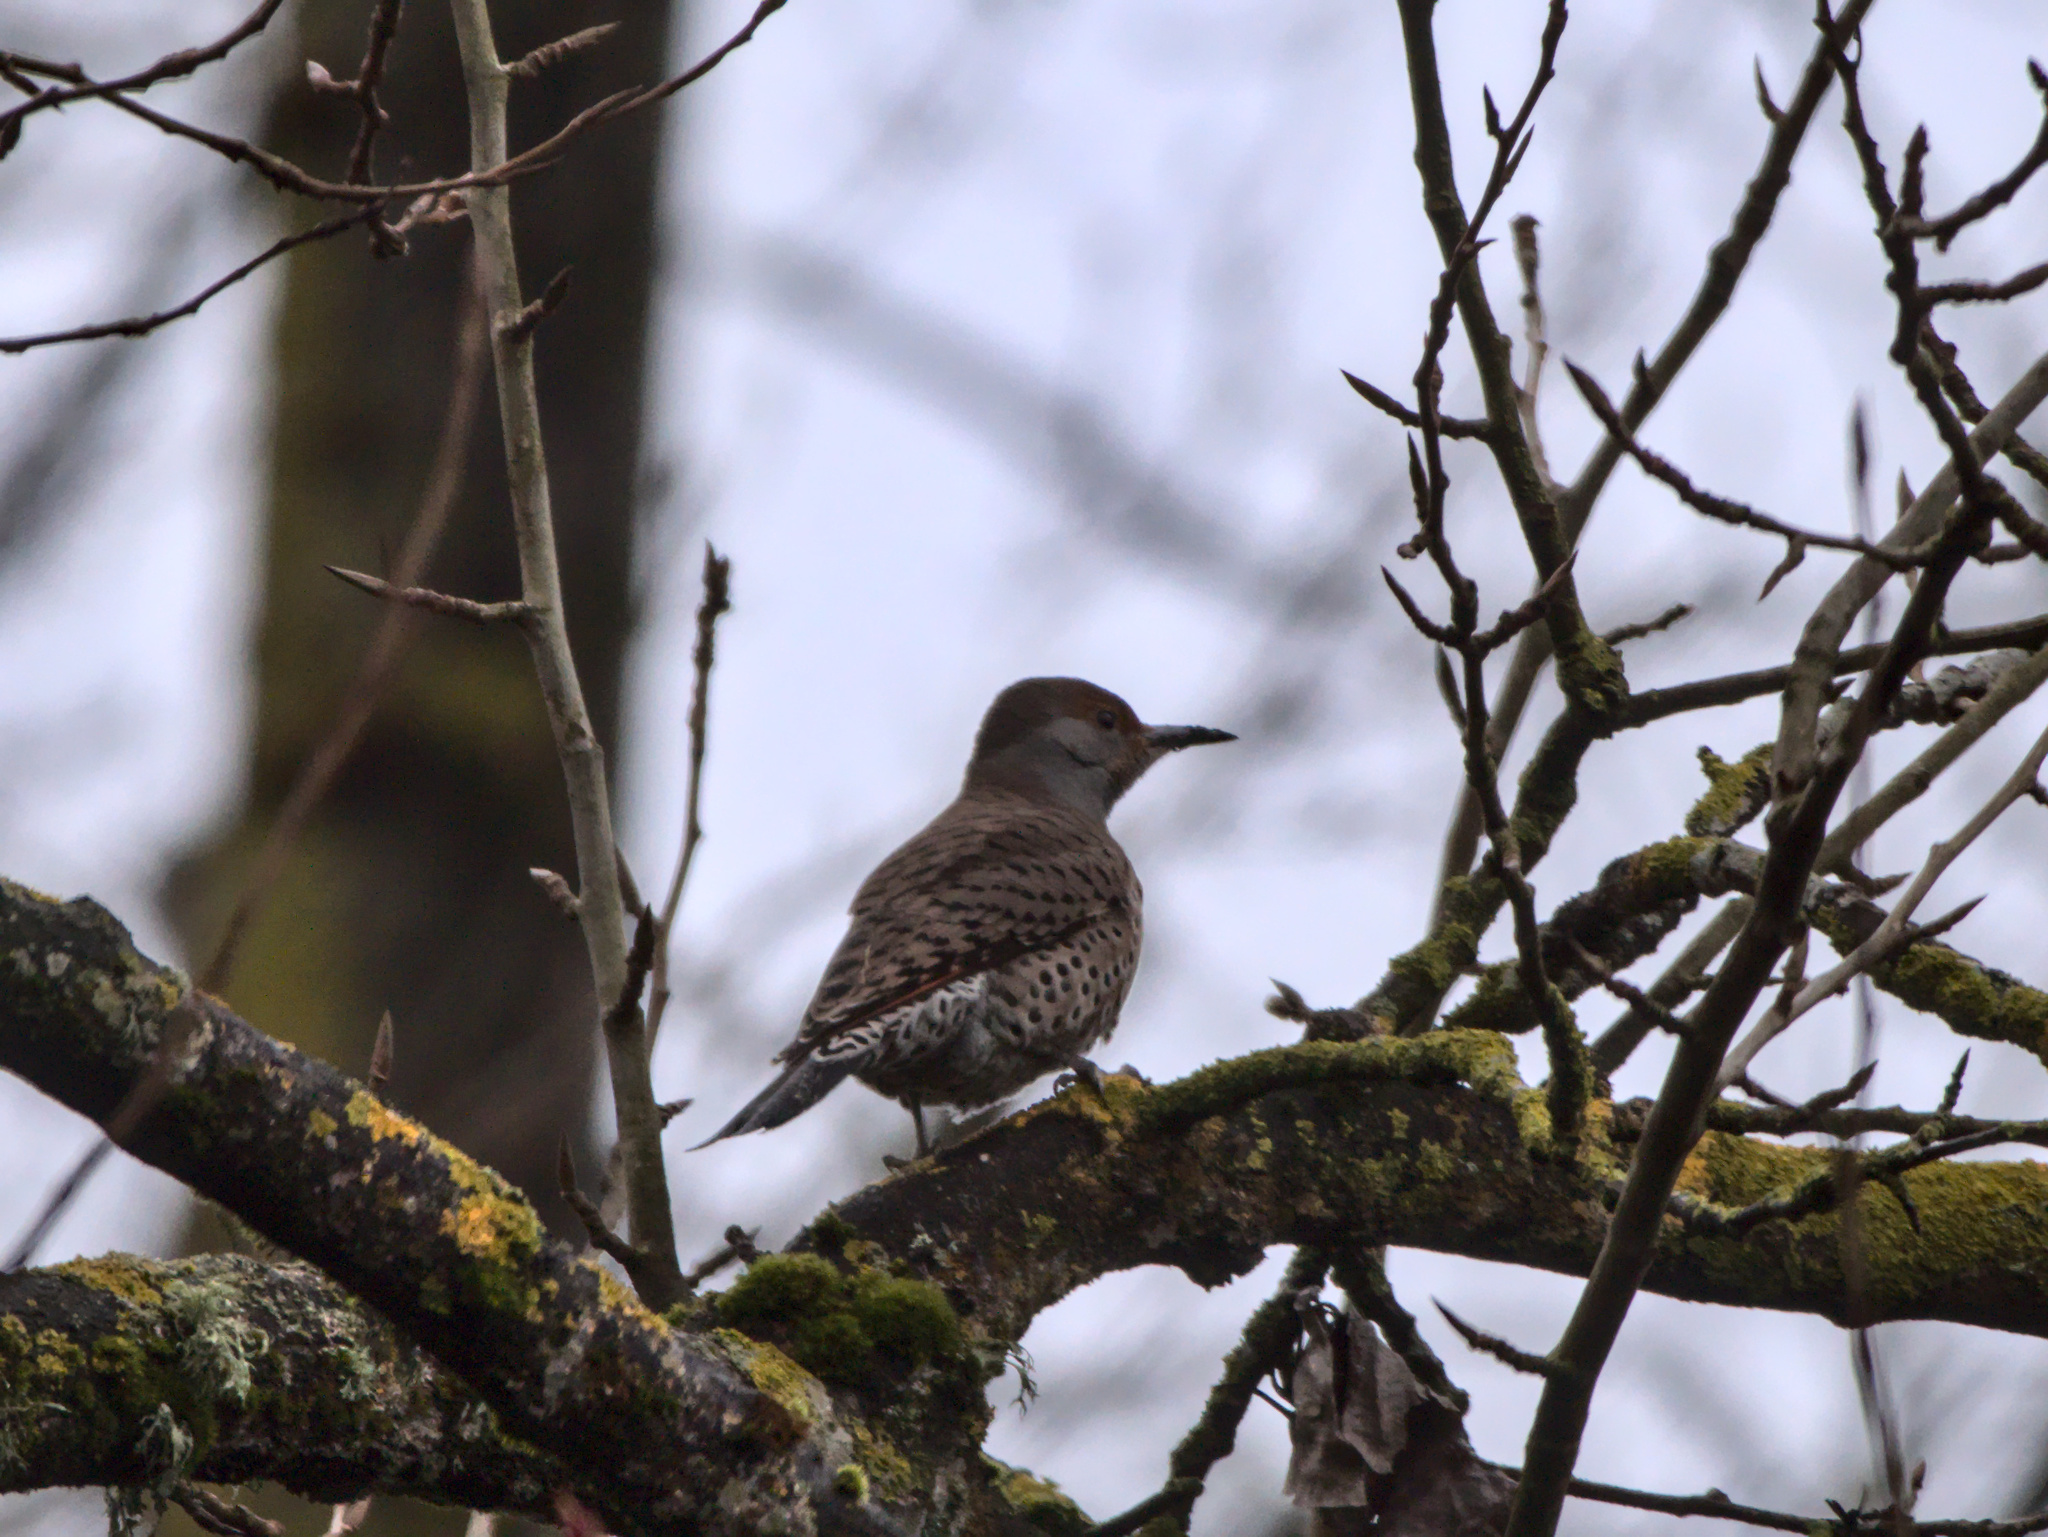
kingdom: Animalia
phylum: Chordata
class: Aves
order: Piciformes
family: Picidae
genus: Colaptes
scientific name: Colaptes auratus
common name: Northern flicker
